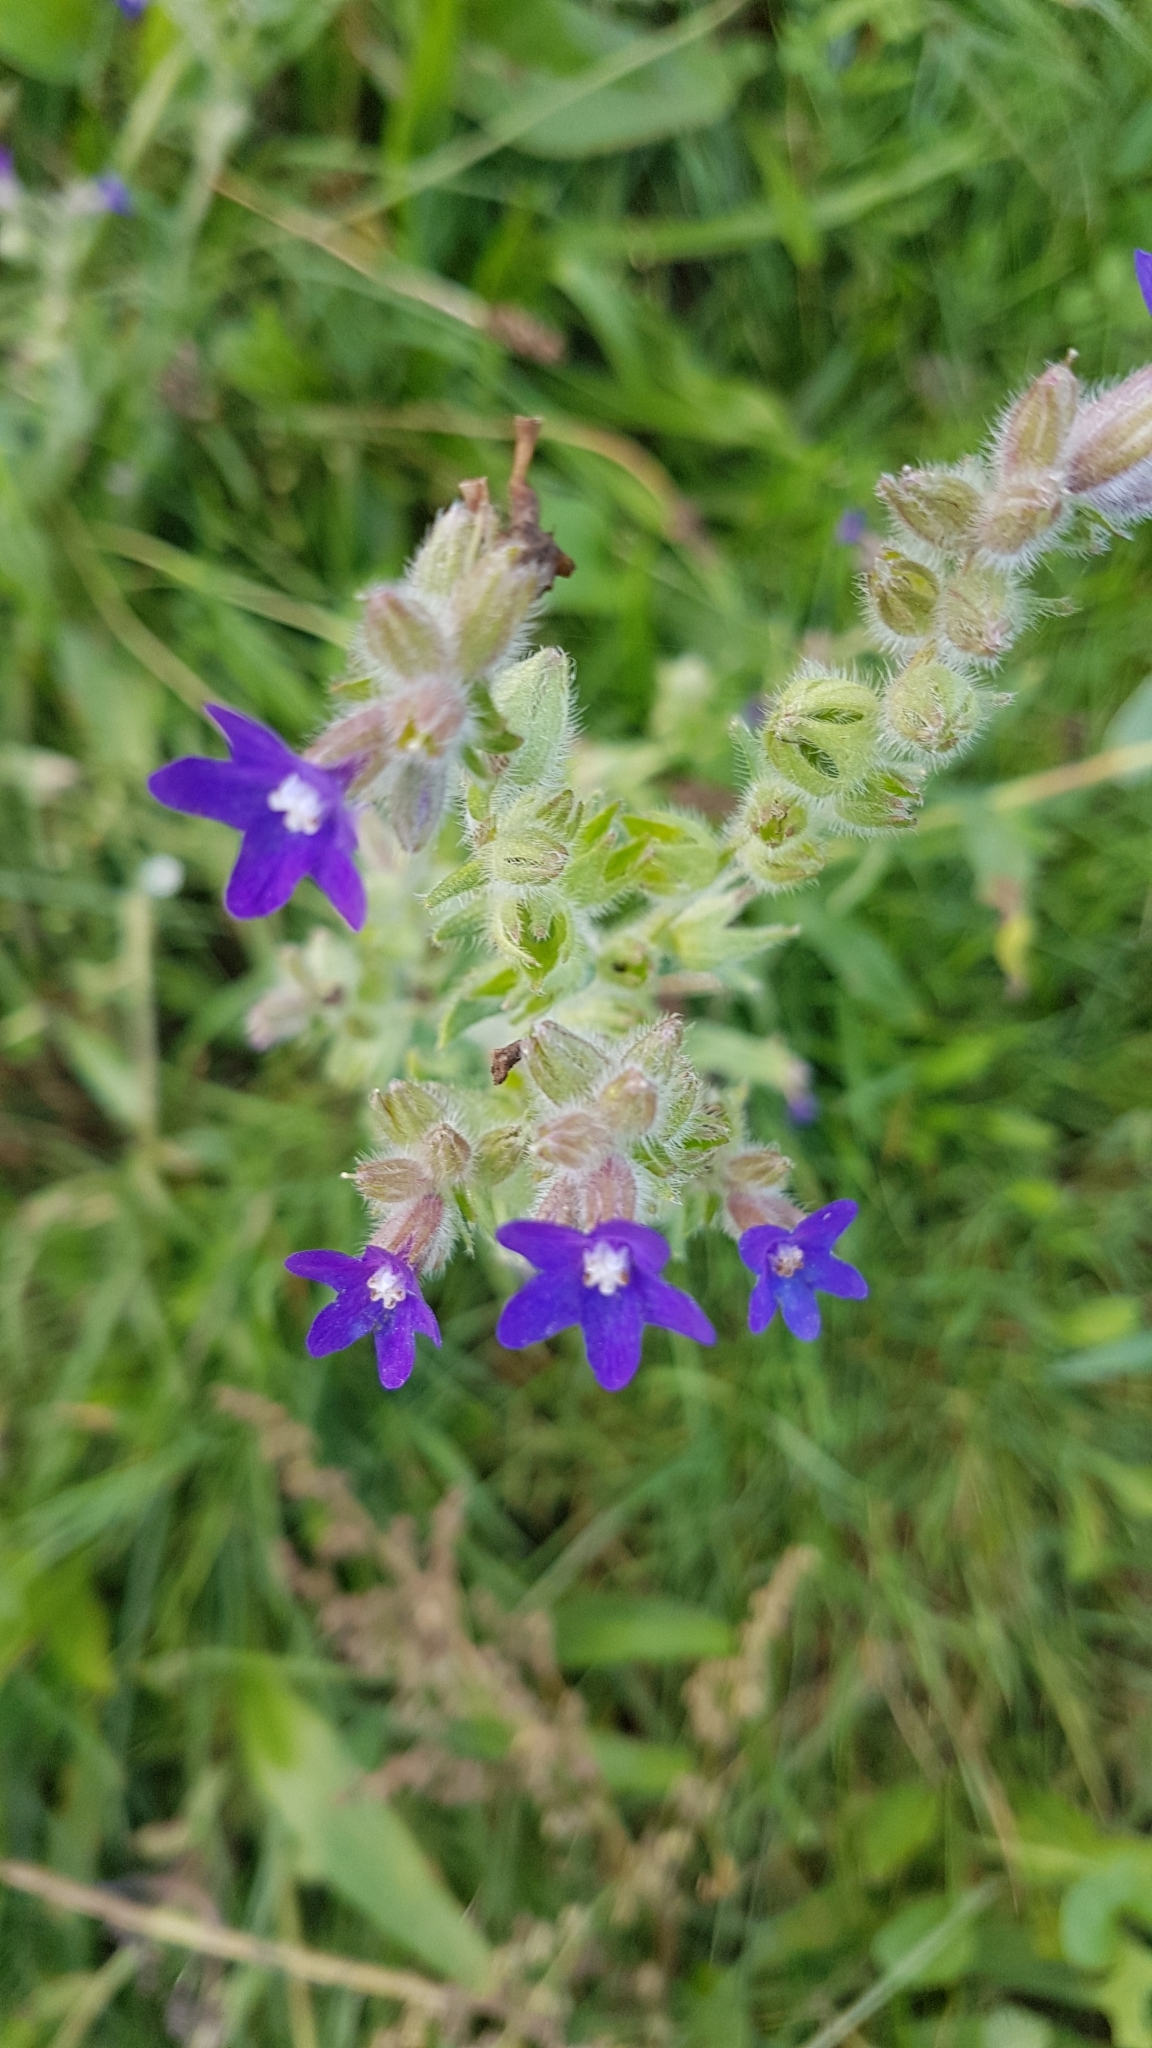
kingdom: Plantae
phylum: Tracheophyta
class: Magnoliopsida
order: Boraginales
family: Boraginaceae
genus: Anchusa
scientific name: Anchusa officinalis
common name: Alkanet
